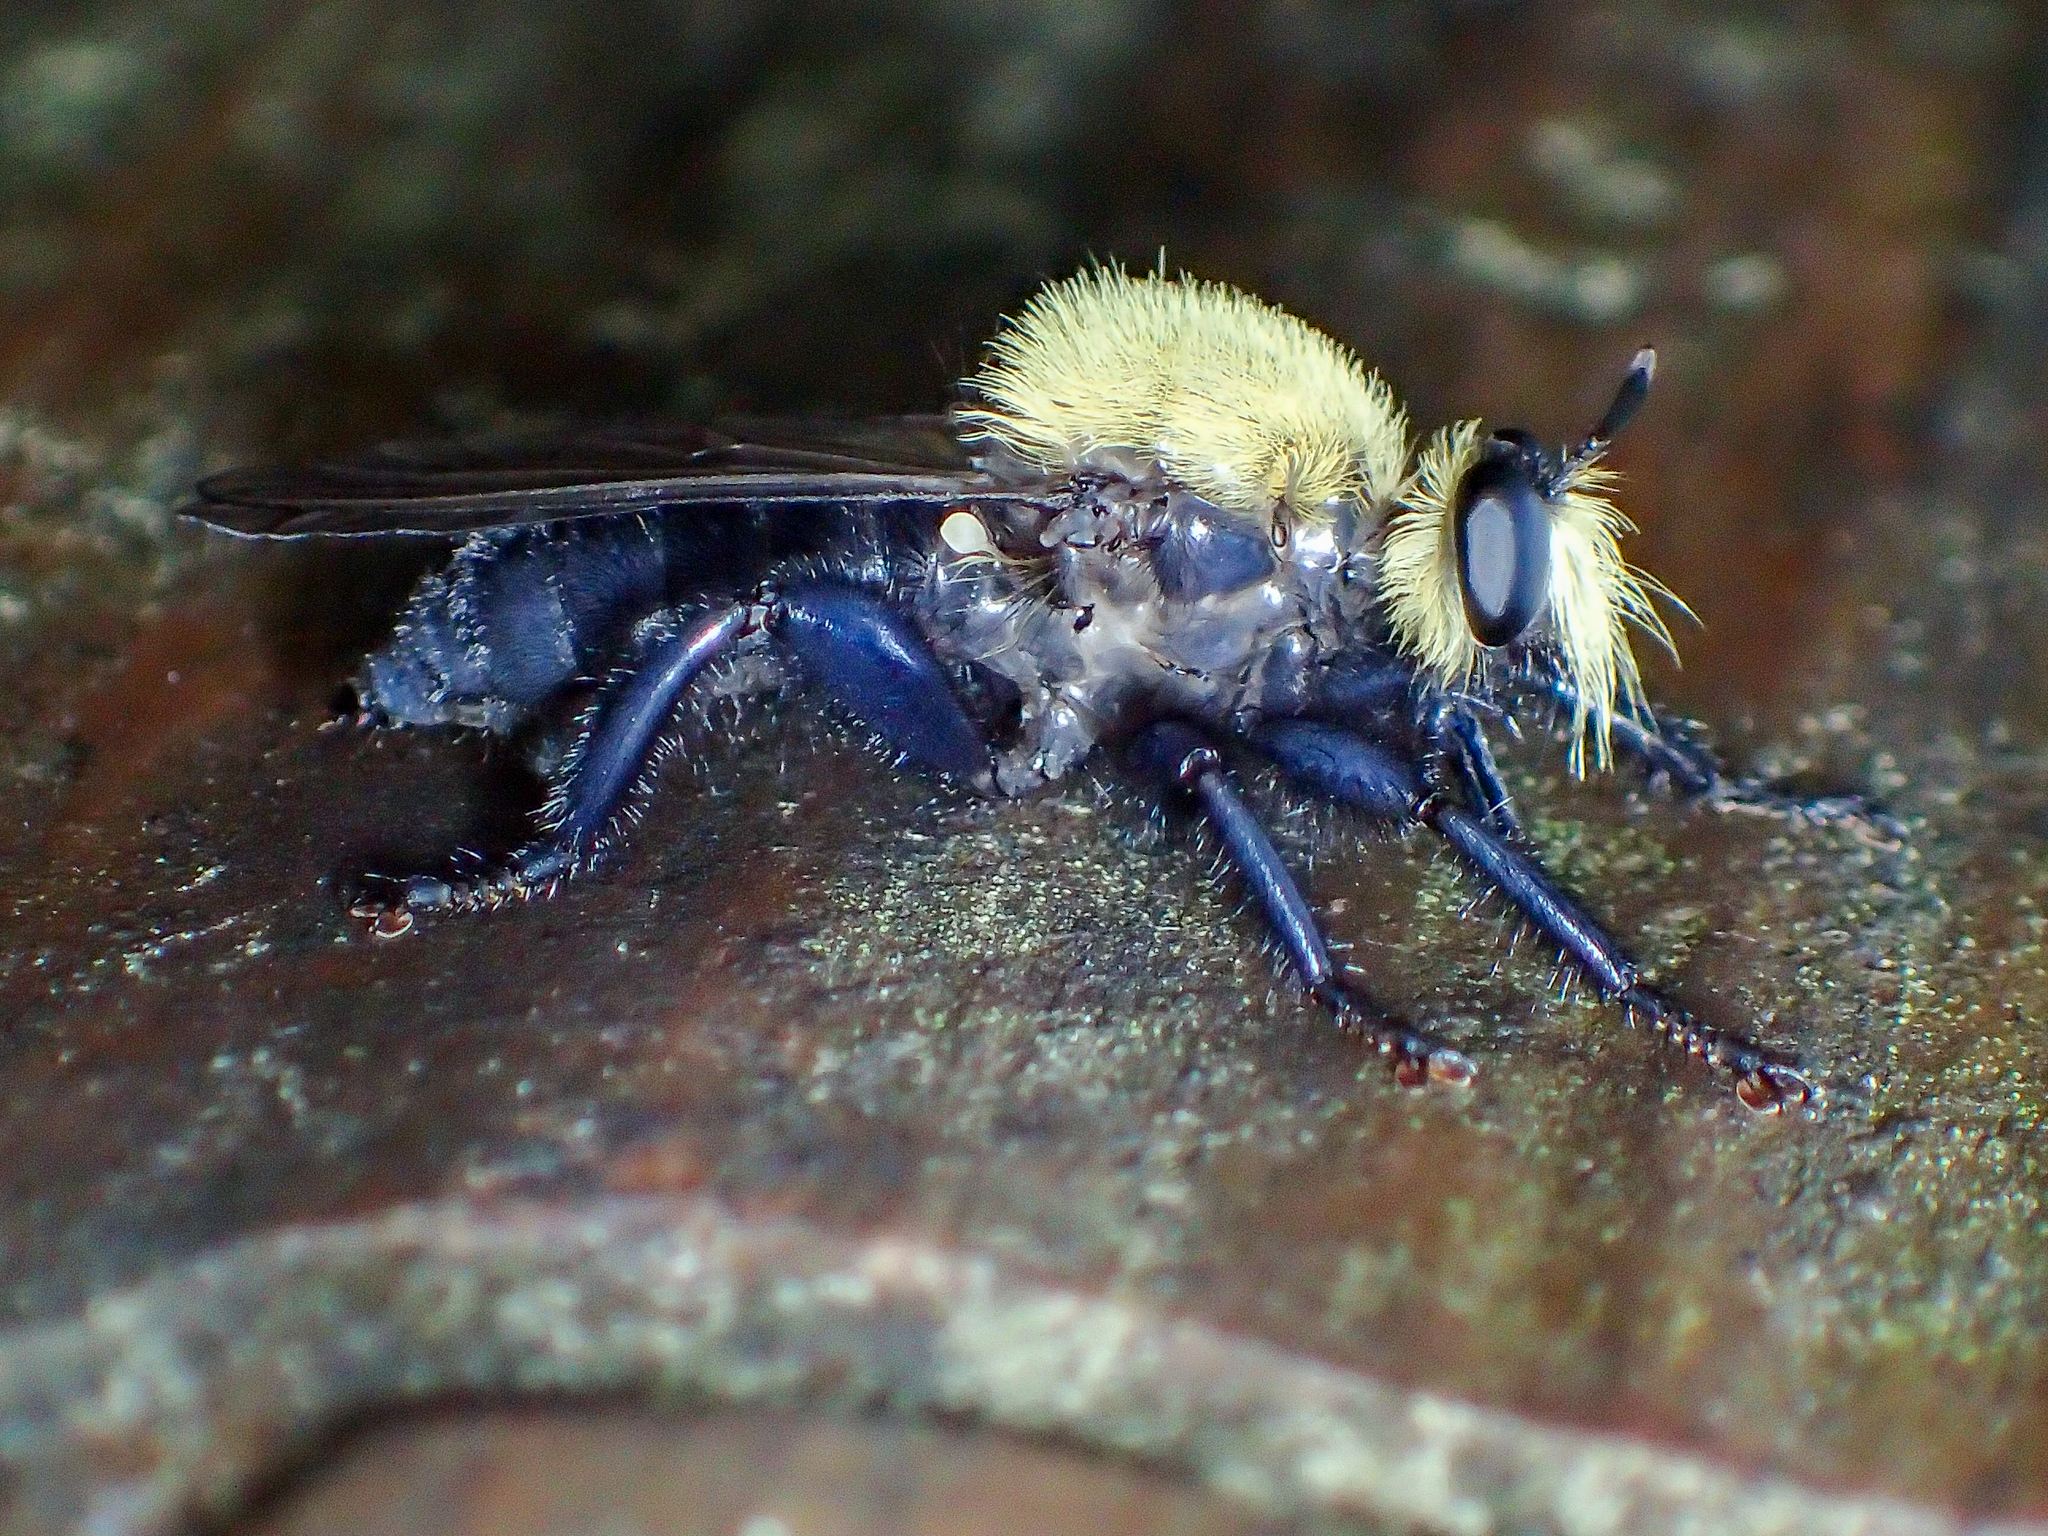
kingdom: Animalia
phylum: Arthropoda
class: Insecta
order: Diptera
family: Asilidae
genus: Laphria
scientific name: Laphria virginica
